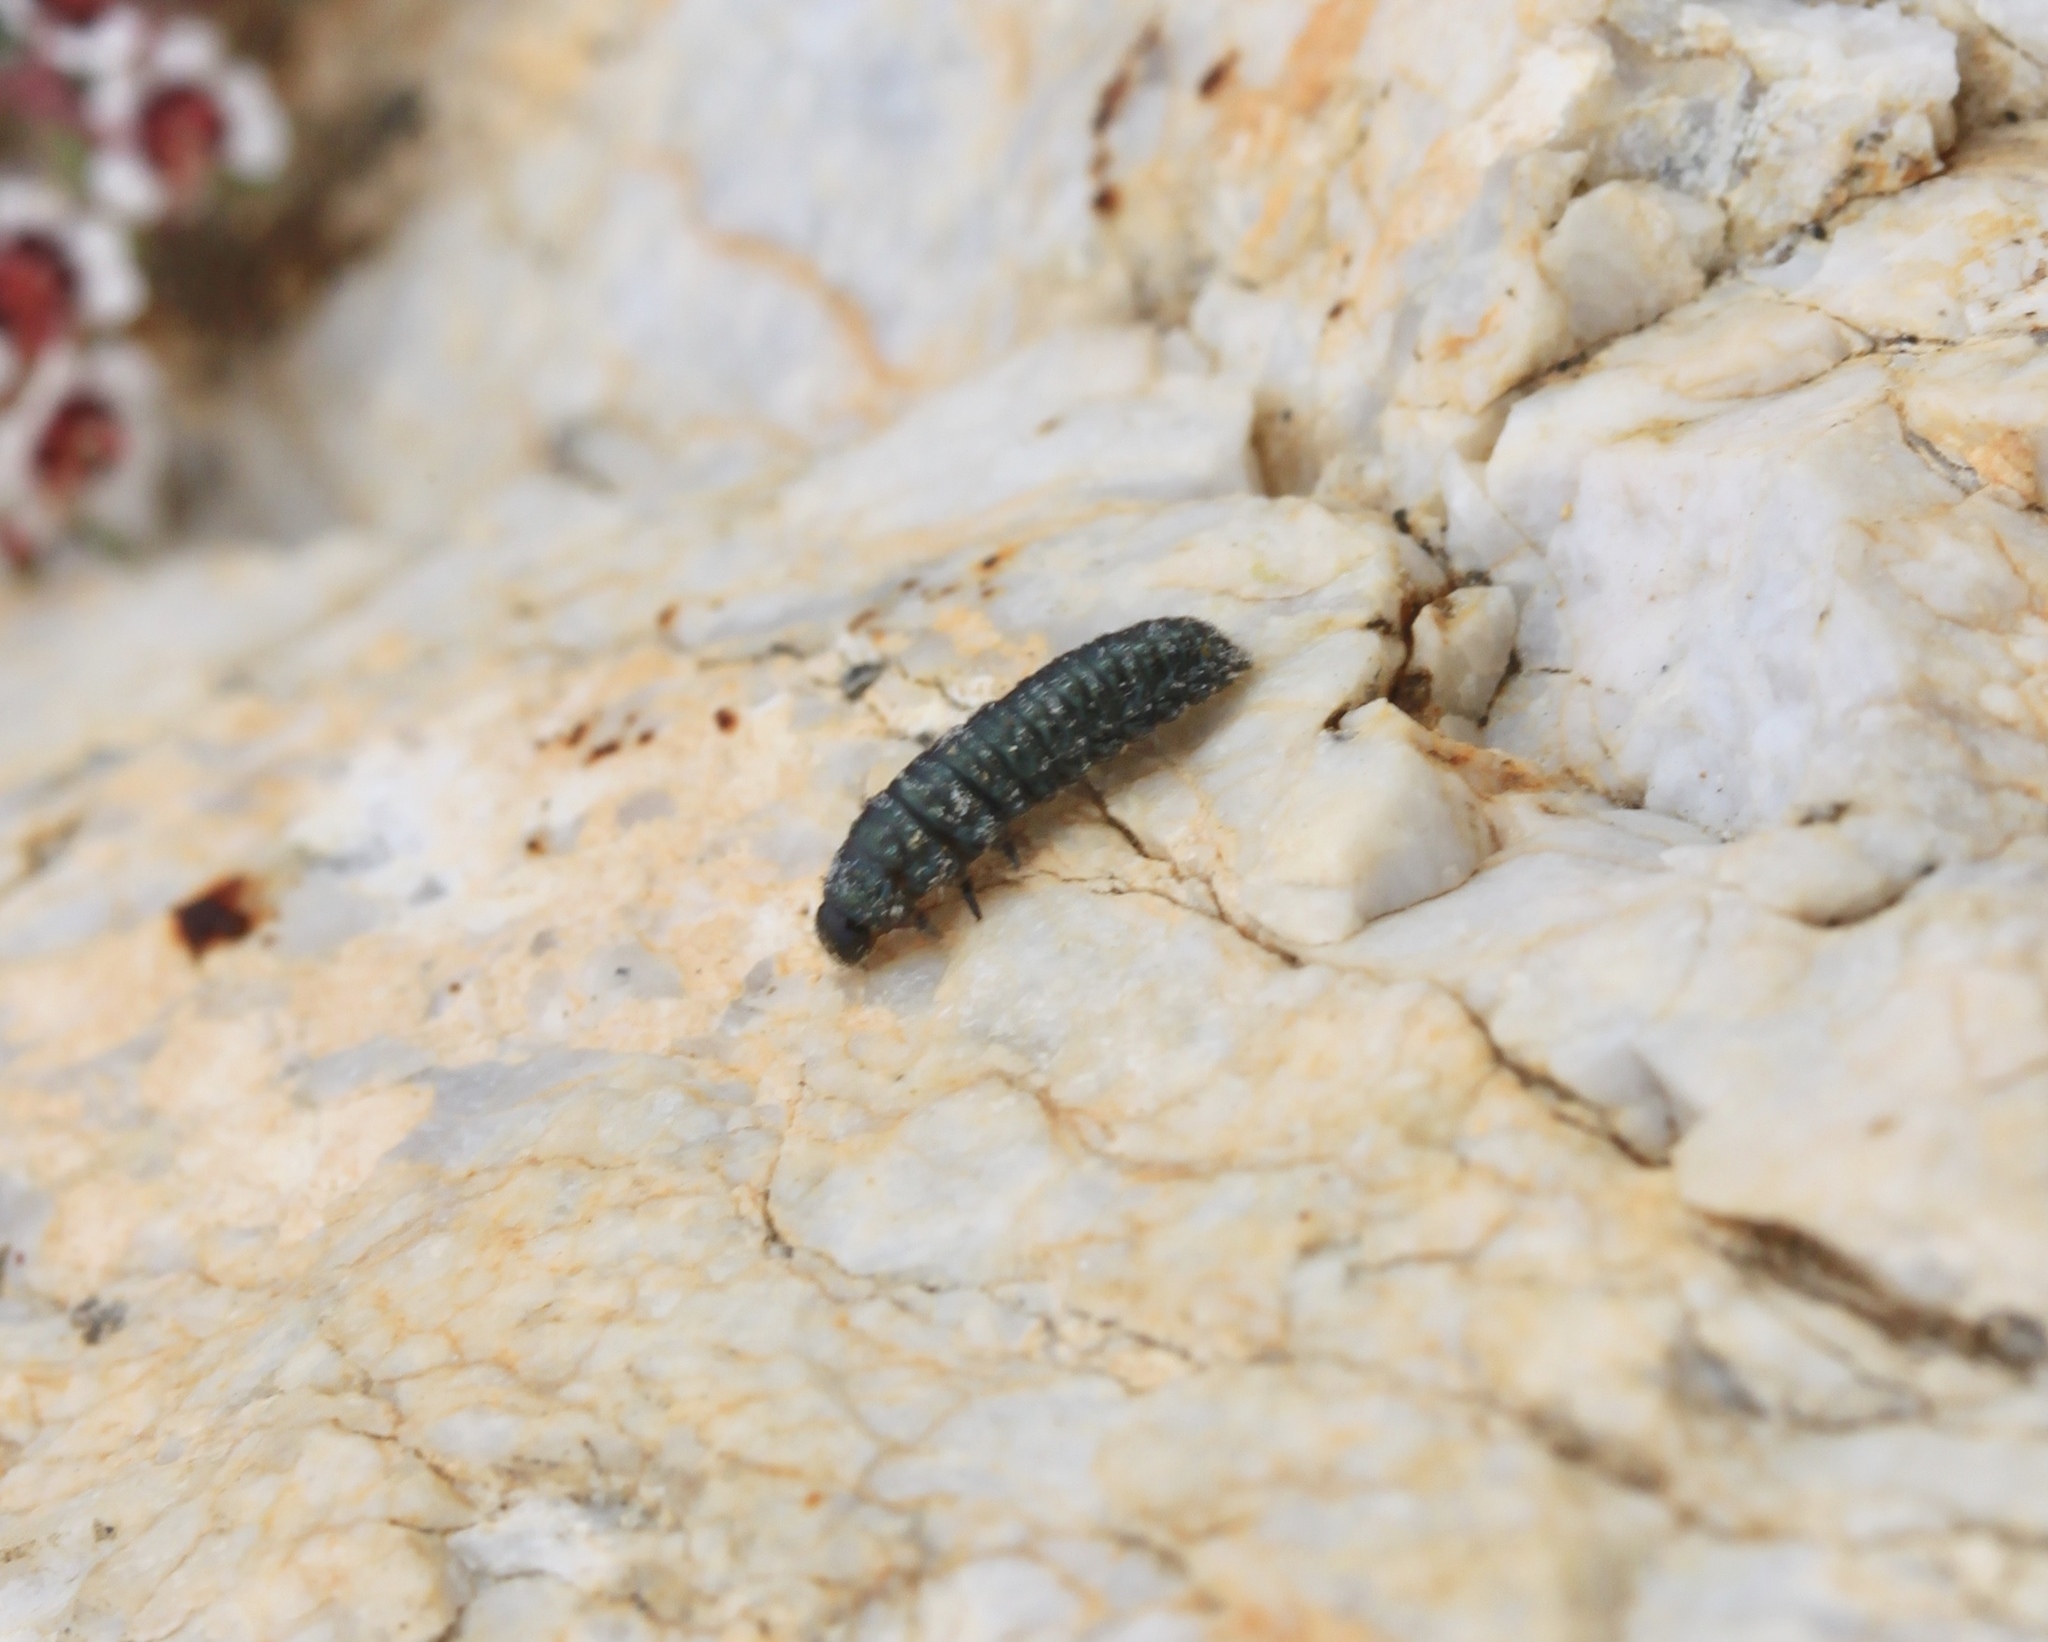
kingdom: Animalia
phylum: Arthropoda
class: Insecta
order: Coleoptera
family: Chrysomelidae
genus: Trirhabda
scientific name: Trirhabda geminata
